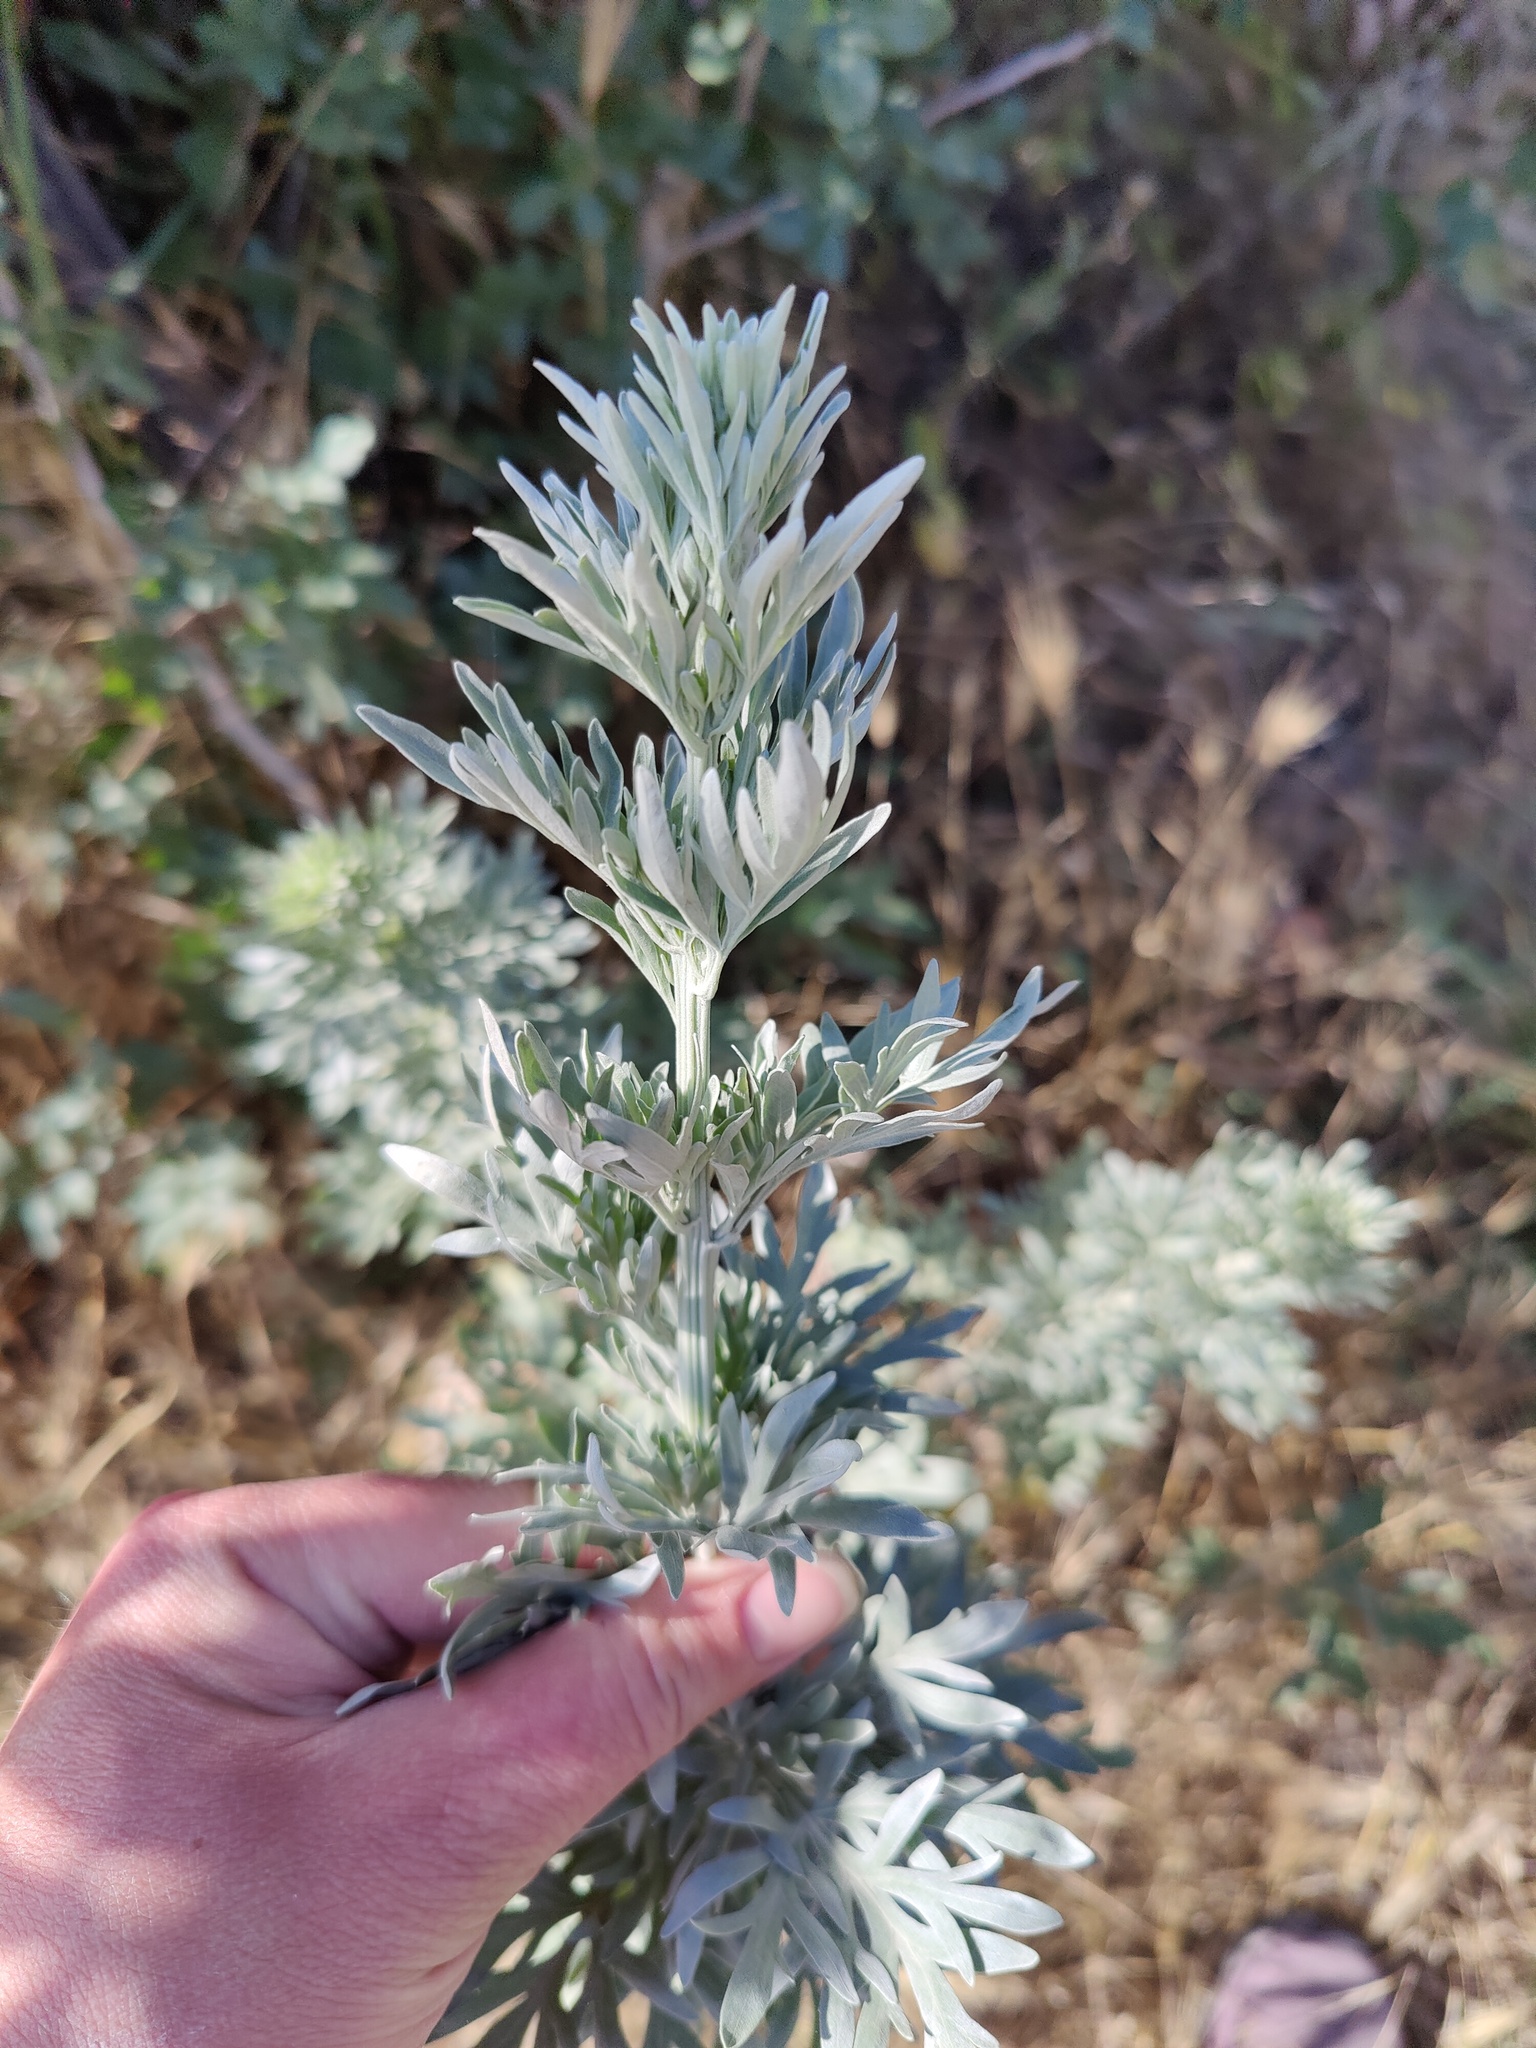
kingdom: Plantae
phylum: Tracheophyta
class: Magnoliopsida
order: Asterales
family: Asteraceae
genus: Artemisia
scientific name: Artemisia absinthium
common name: Wormwood
